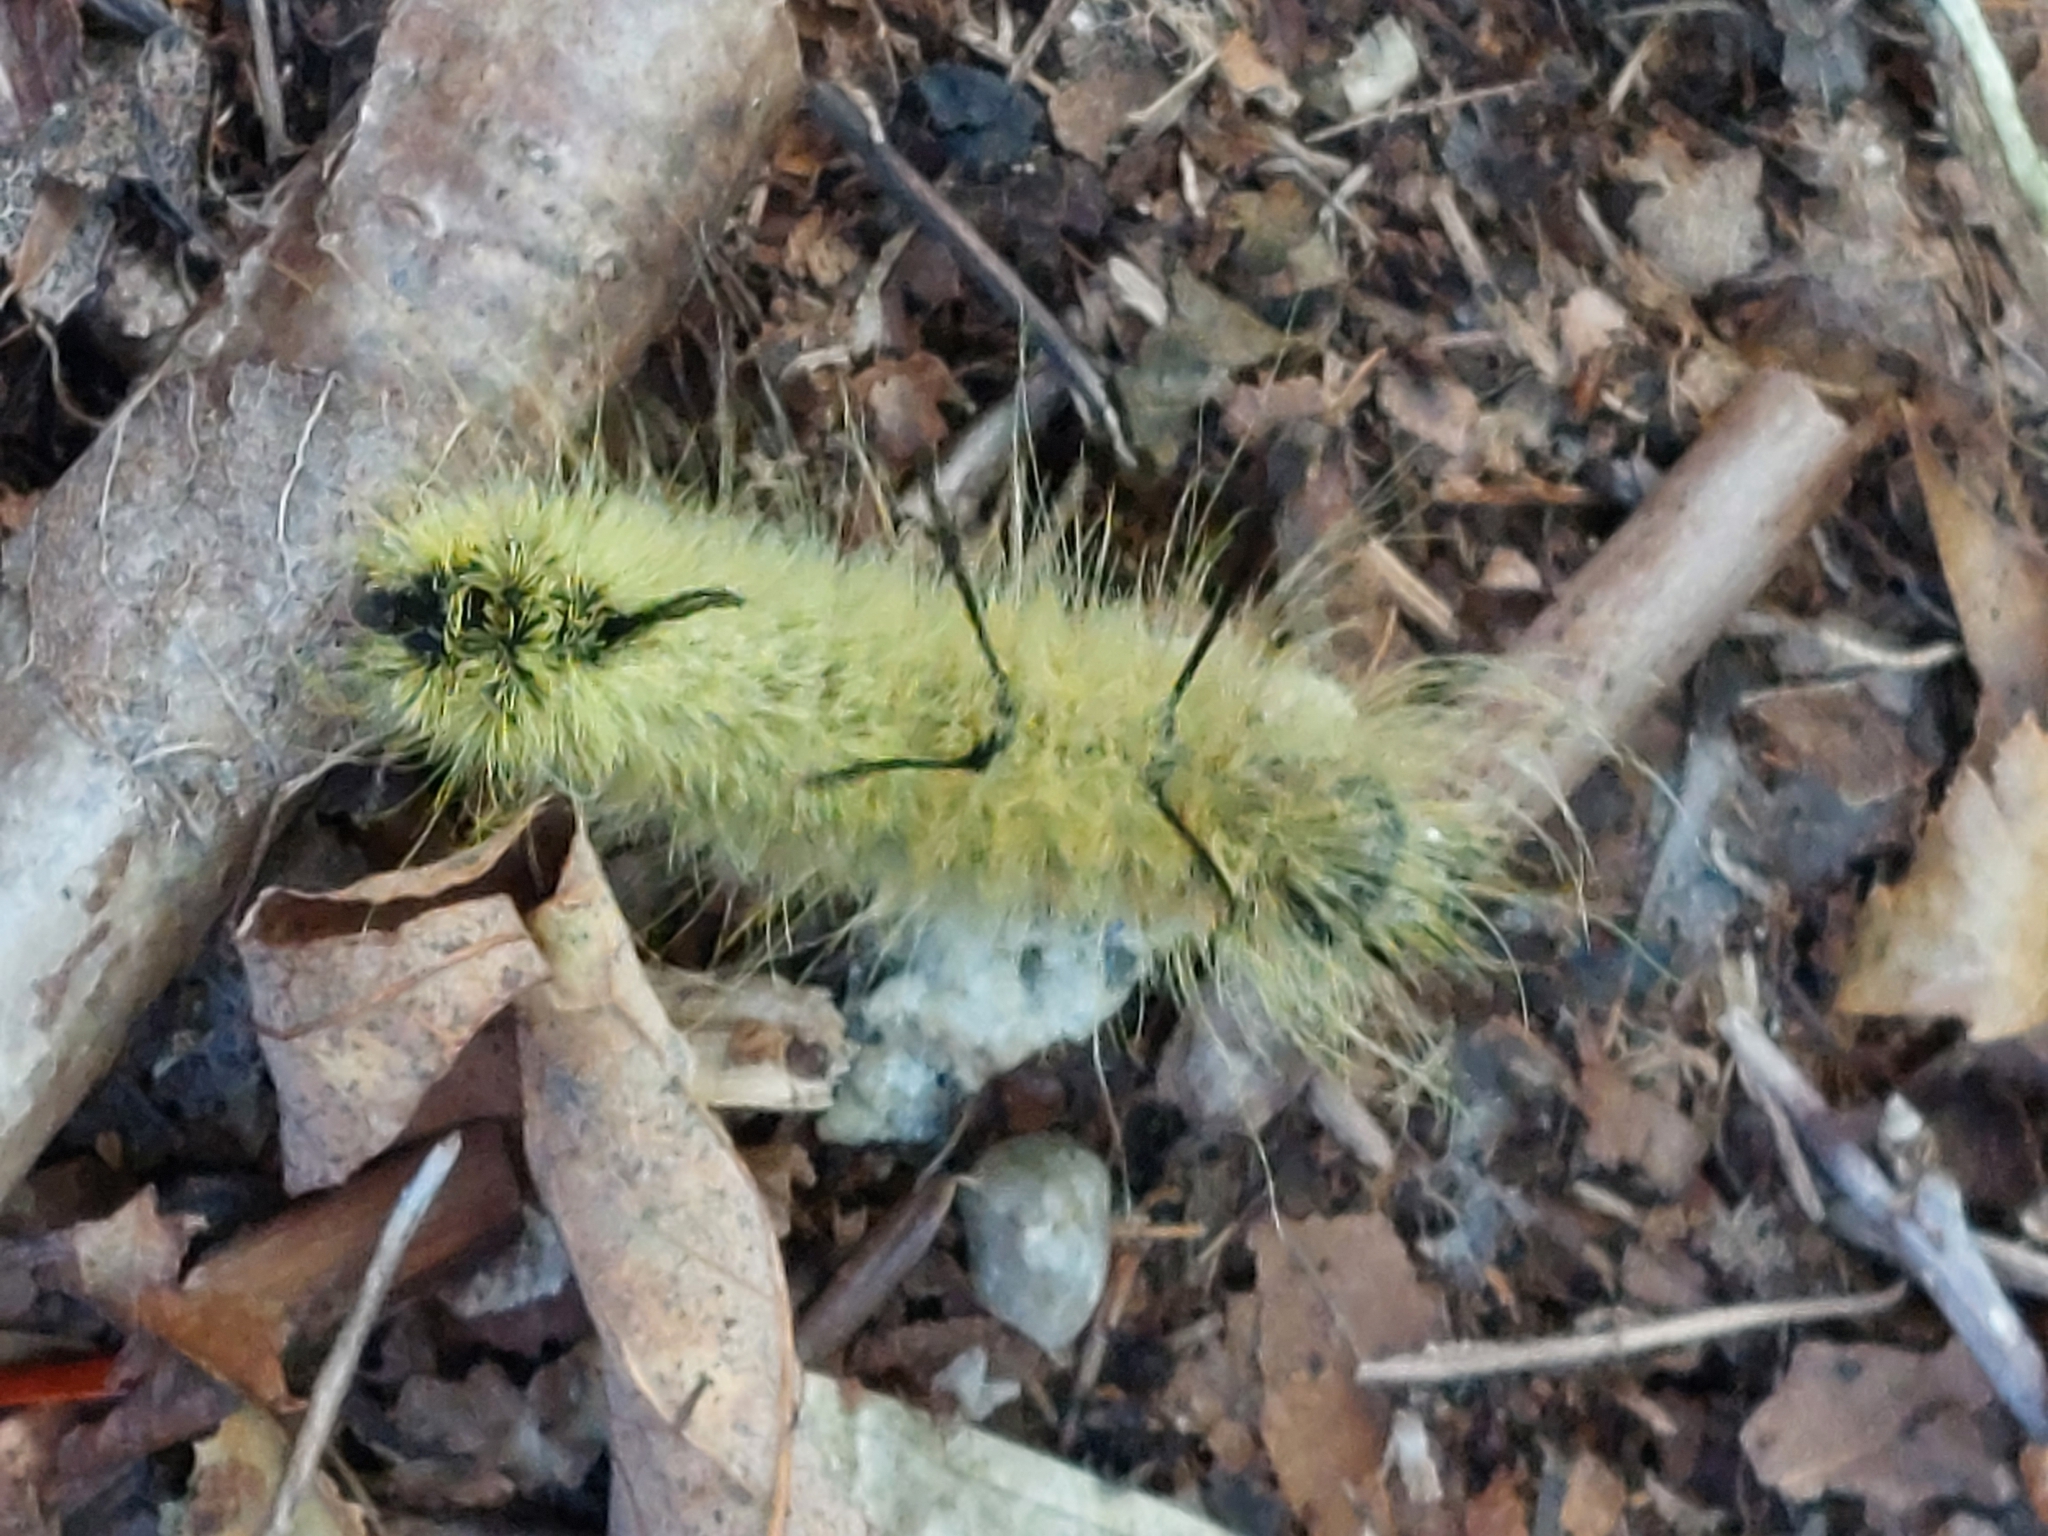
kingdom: Animalia
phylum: Arthropoda
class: Insecta
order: Lepidoptera
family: Noctuidae
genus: Acronicta
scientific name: Acronicta americana
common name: American dagger
